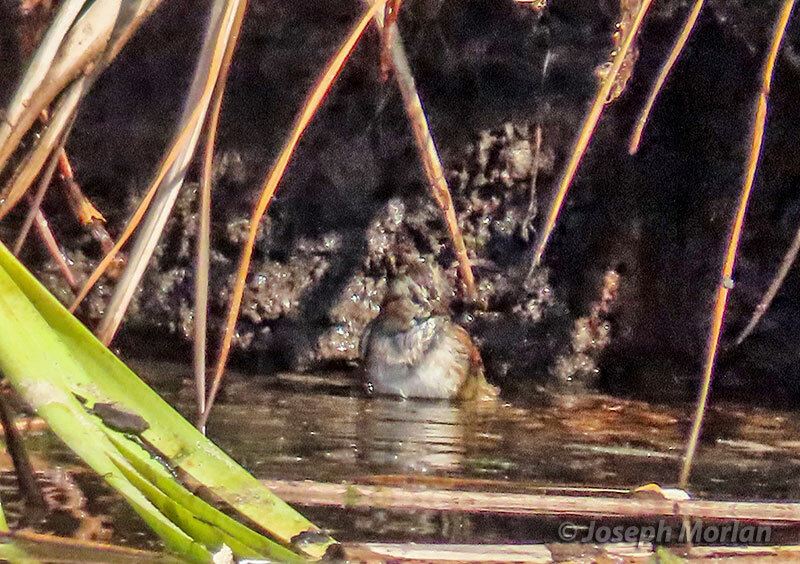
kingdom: Animalia
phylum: Chordata
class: Aves
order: Passeriformes
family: Passerellidae
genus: Melospiza
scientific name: Melospiza georgiana
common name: Swamp sparrow
